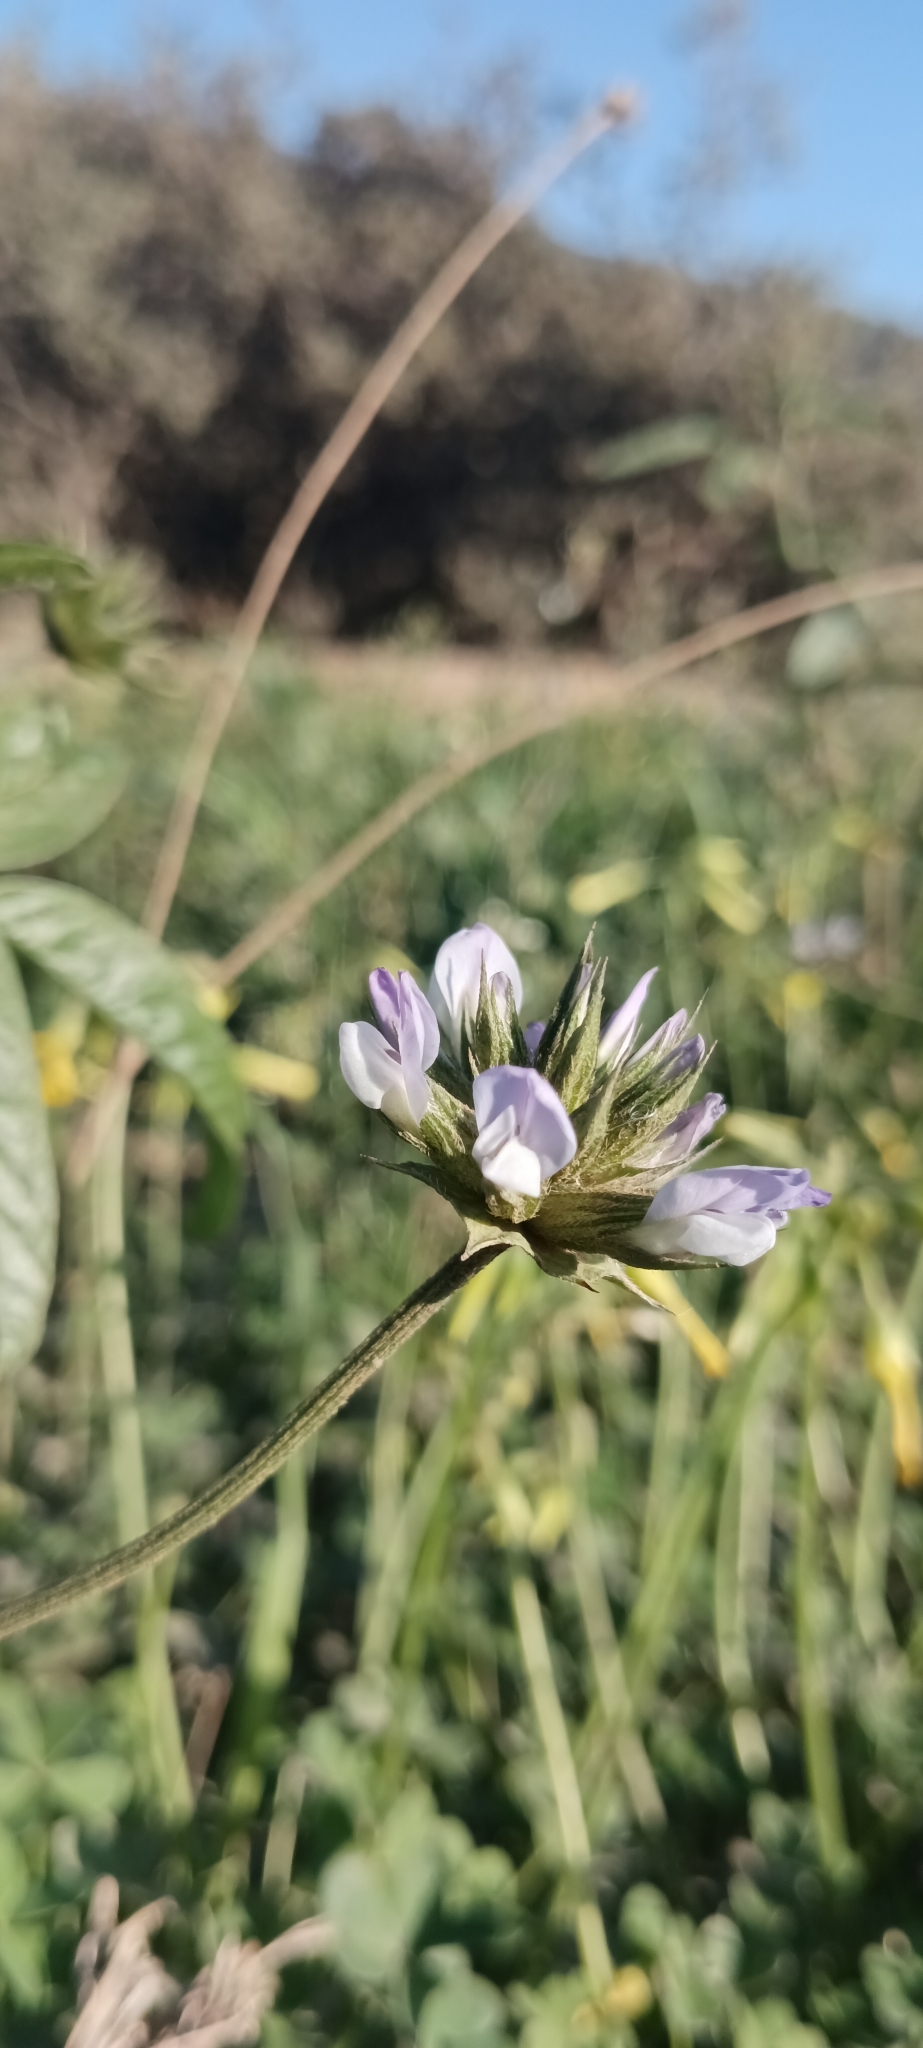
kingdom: Plantae
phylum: Tracheophyta
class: Magnoliopsida
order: Fabales
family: Fabaceae
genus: Bituminaria
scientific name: Bituminaria bituminosa
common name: Arabian pea
